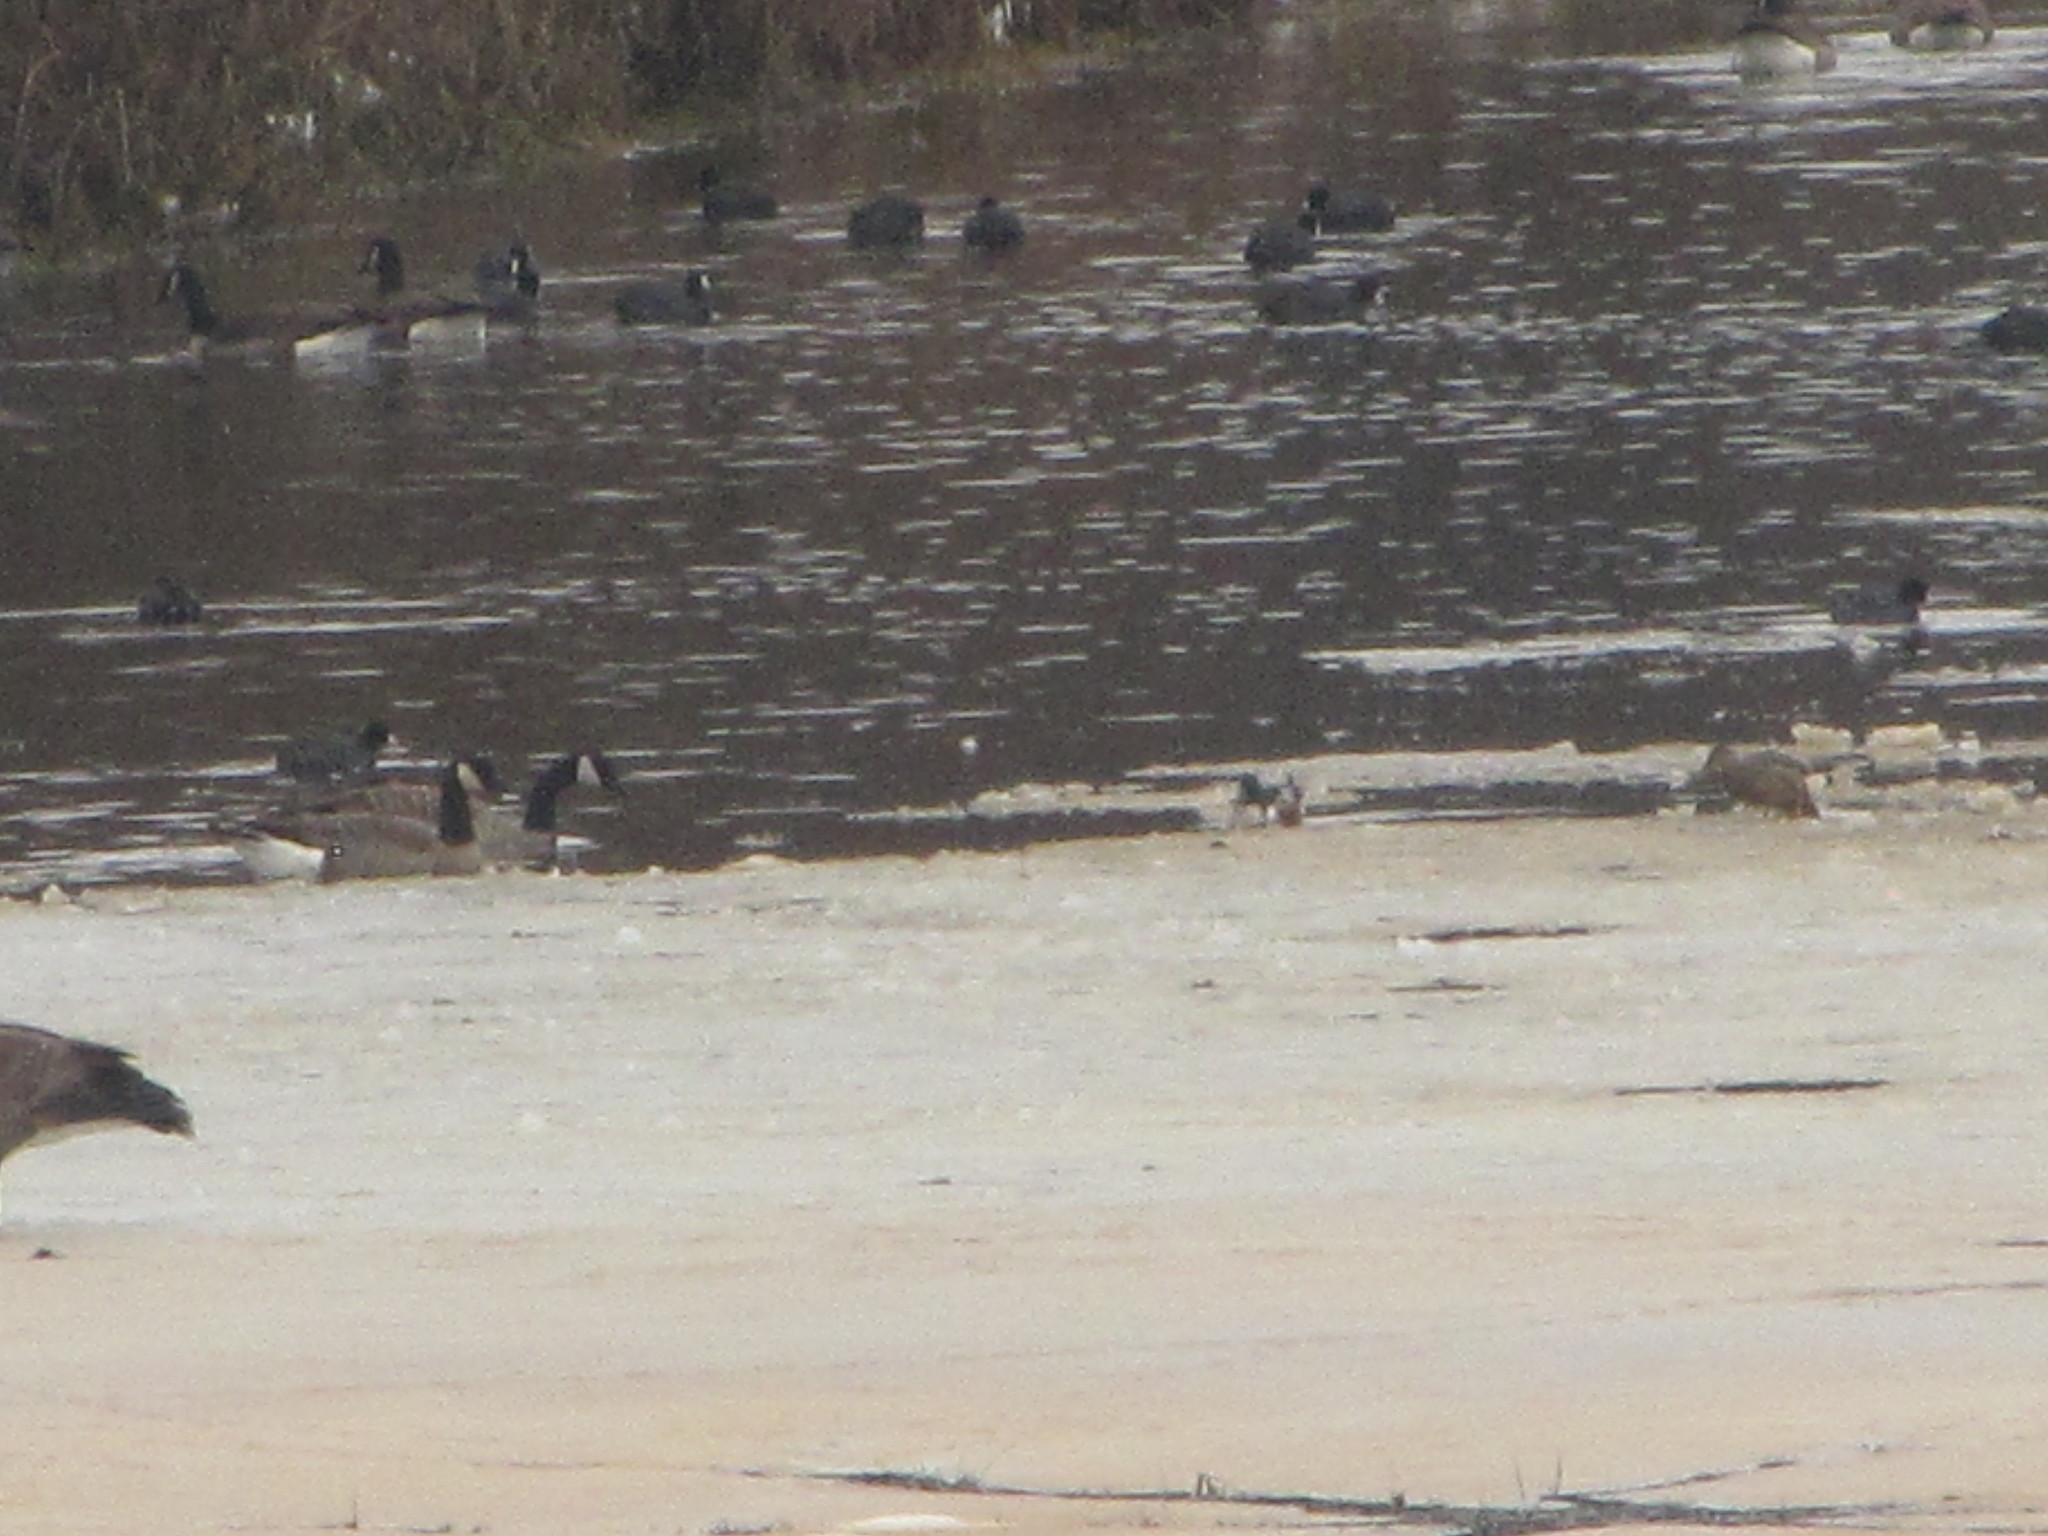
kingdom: Animalia
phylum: Chordata
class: Aves
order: Gruiformes
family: Rallidae
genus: Fulica
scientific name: Fulica americana
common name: American coot
